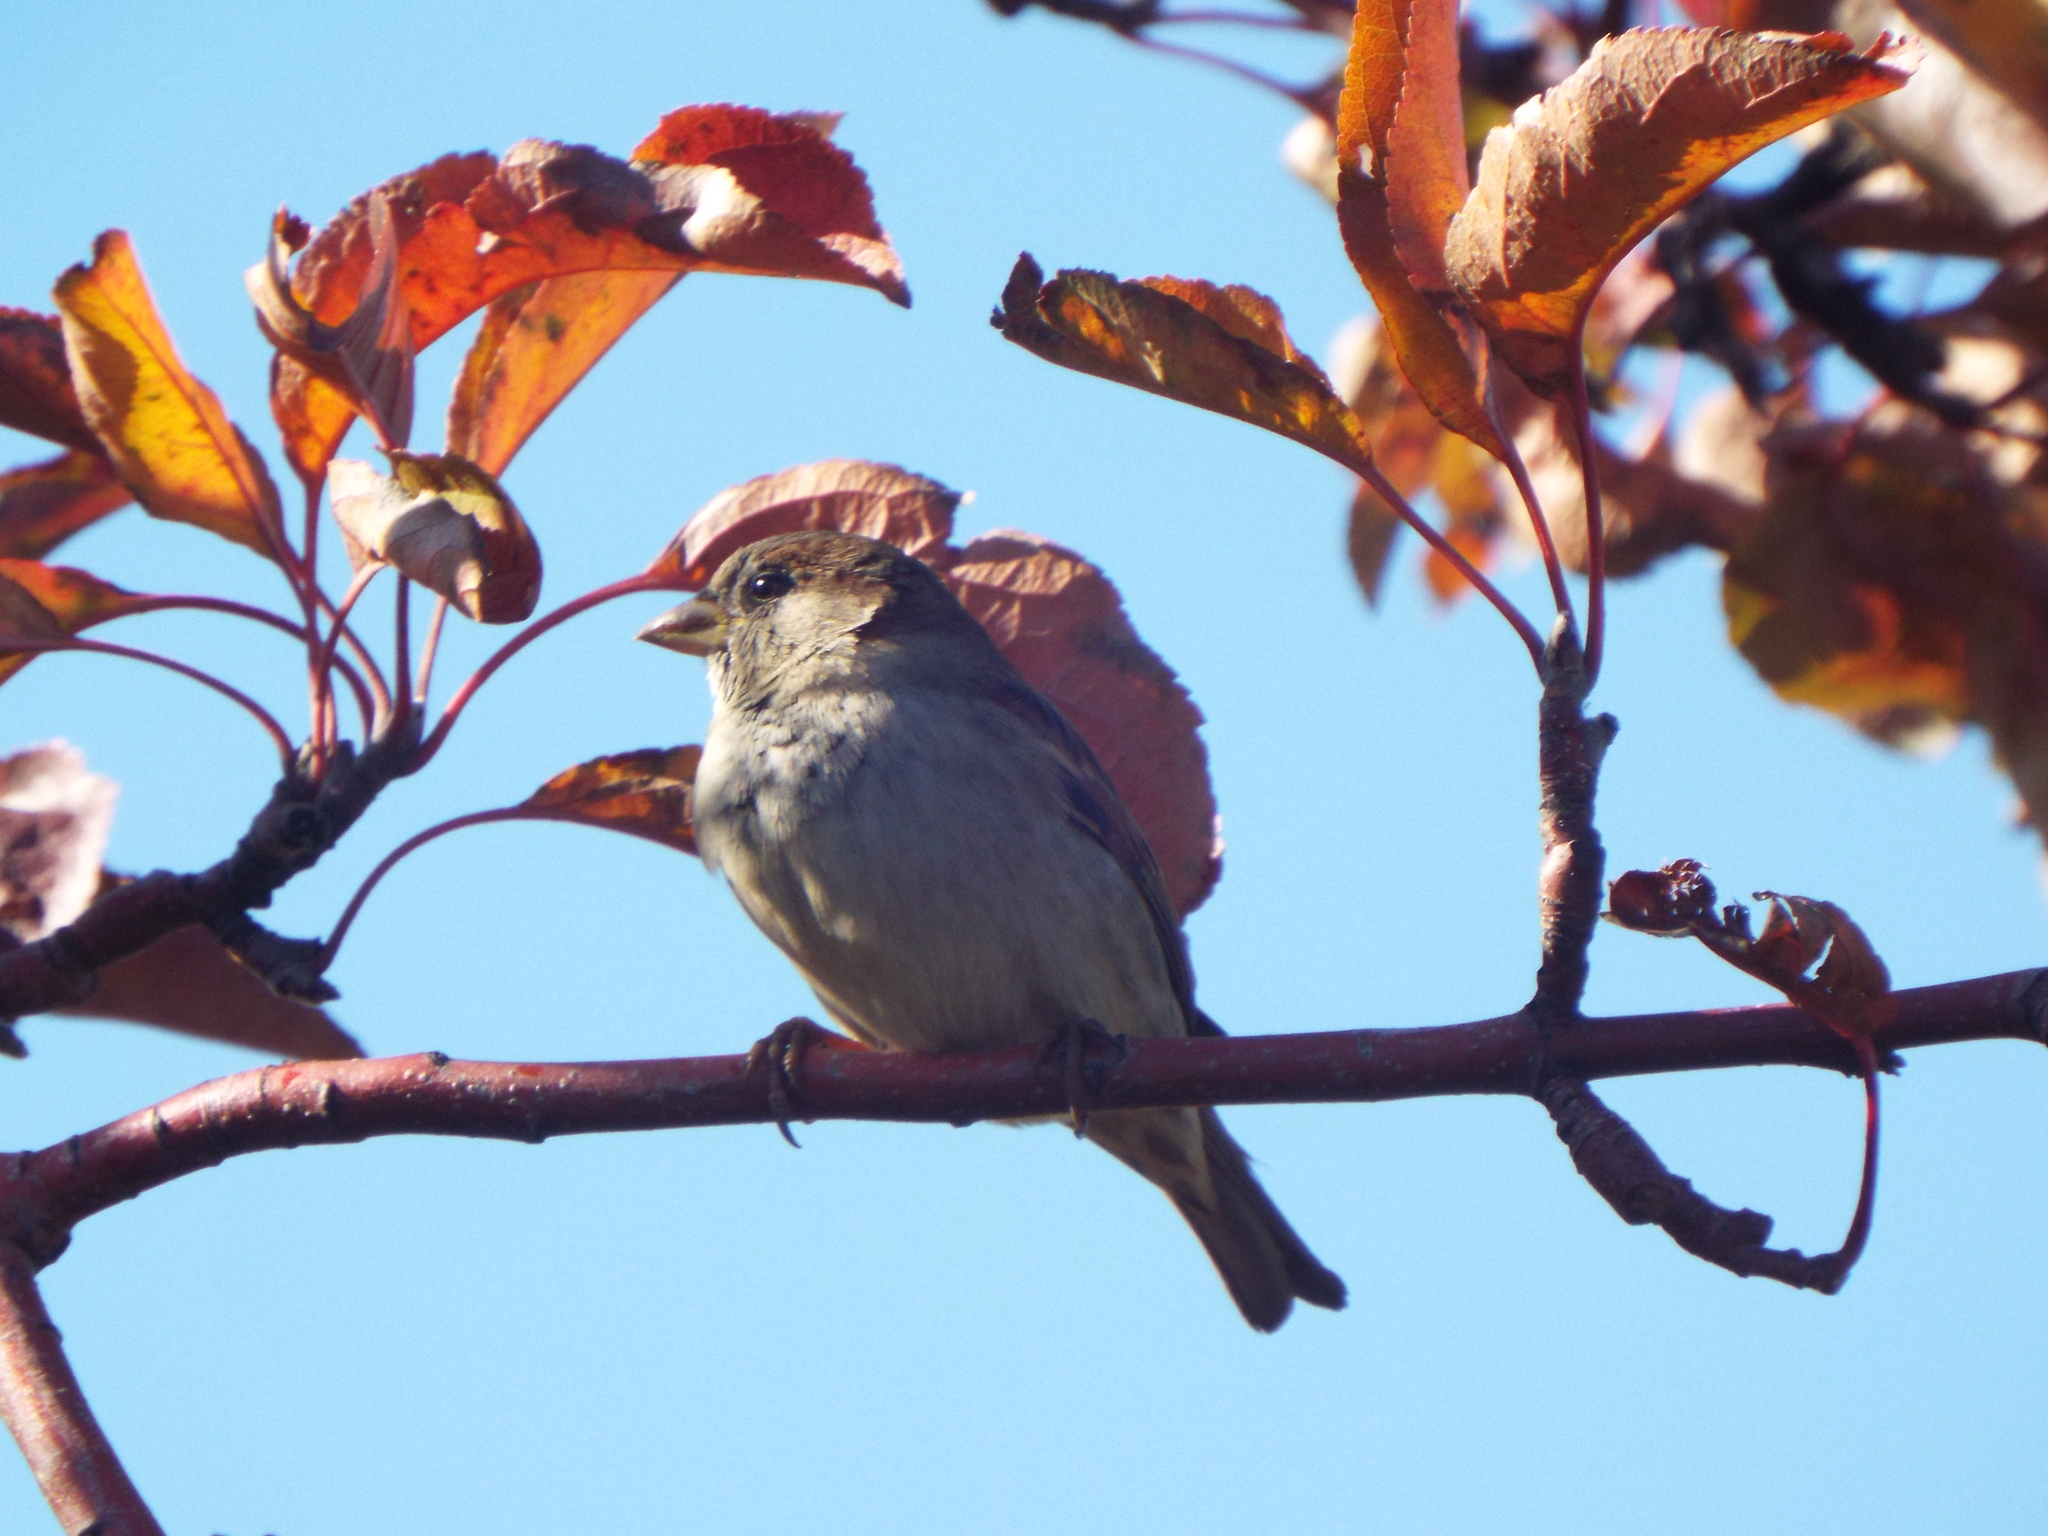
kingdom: Animalia
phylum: Chordata
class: Aves
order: Passeriformes
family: Passeridae
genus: Passer
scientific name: Passer domesticus
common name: House sparrow
